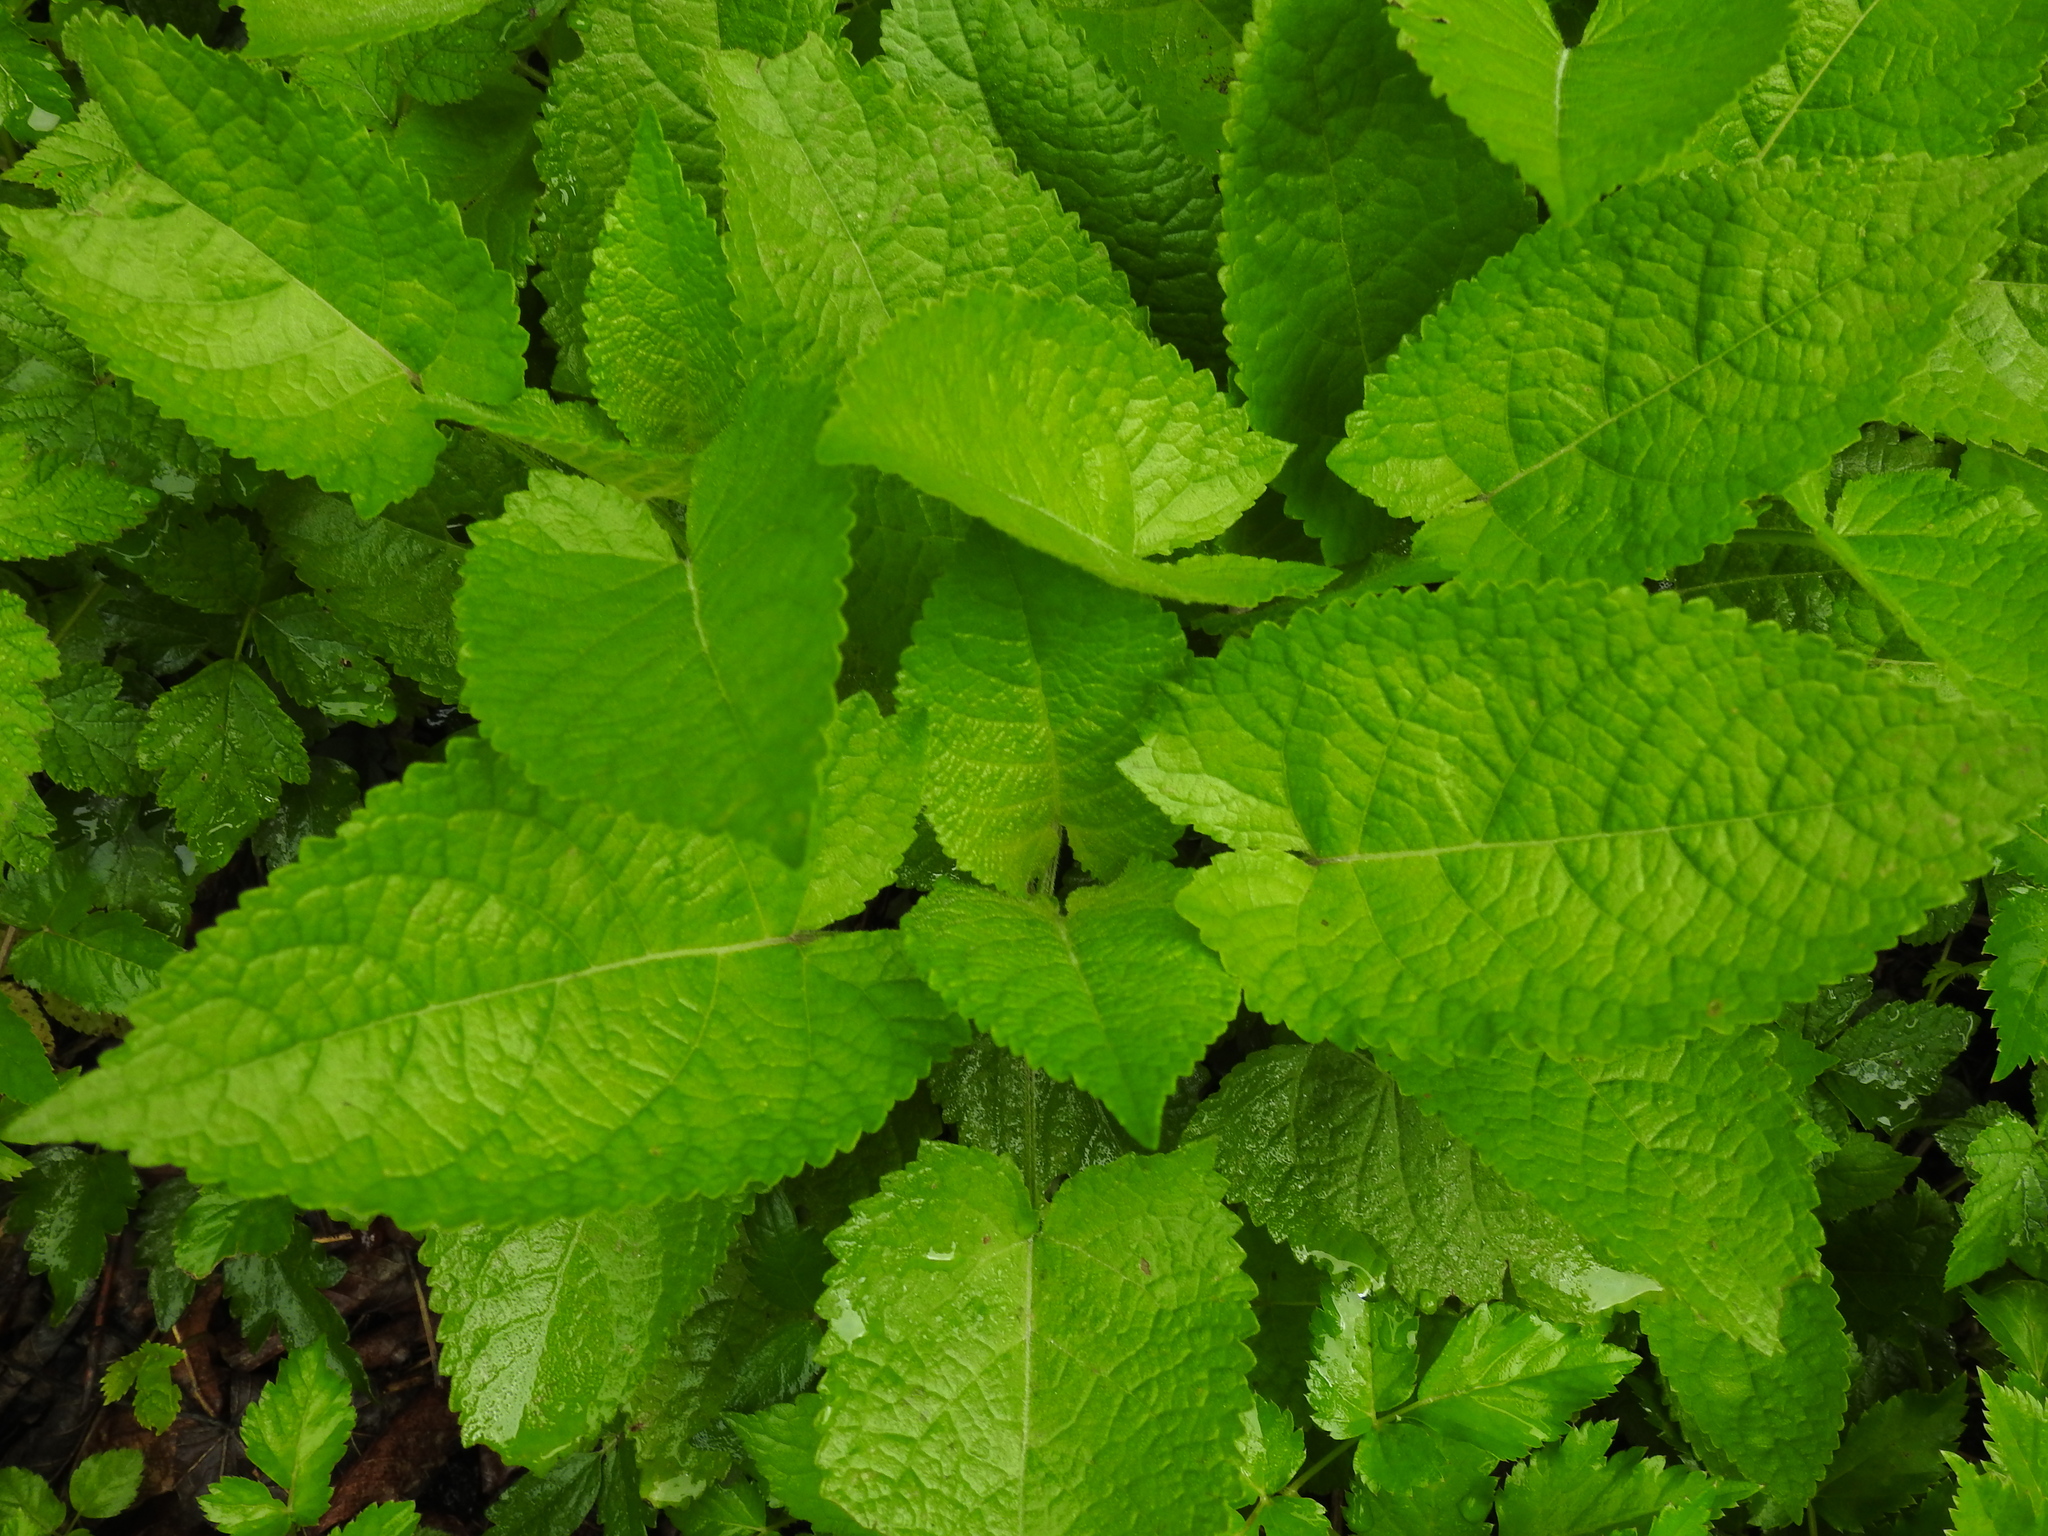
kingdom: Plantae
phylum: Tracheophyta
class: Magnoliopsida
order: Lamiales
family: Lamiaceae
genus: Salvia
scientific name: Salvia glutinosa
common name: Sticky clary
